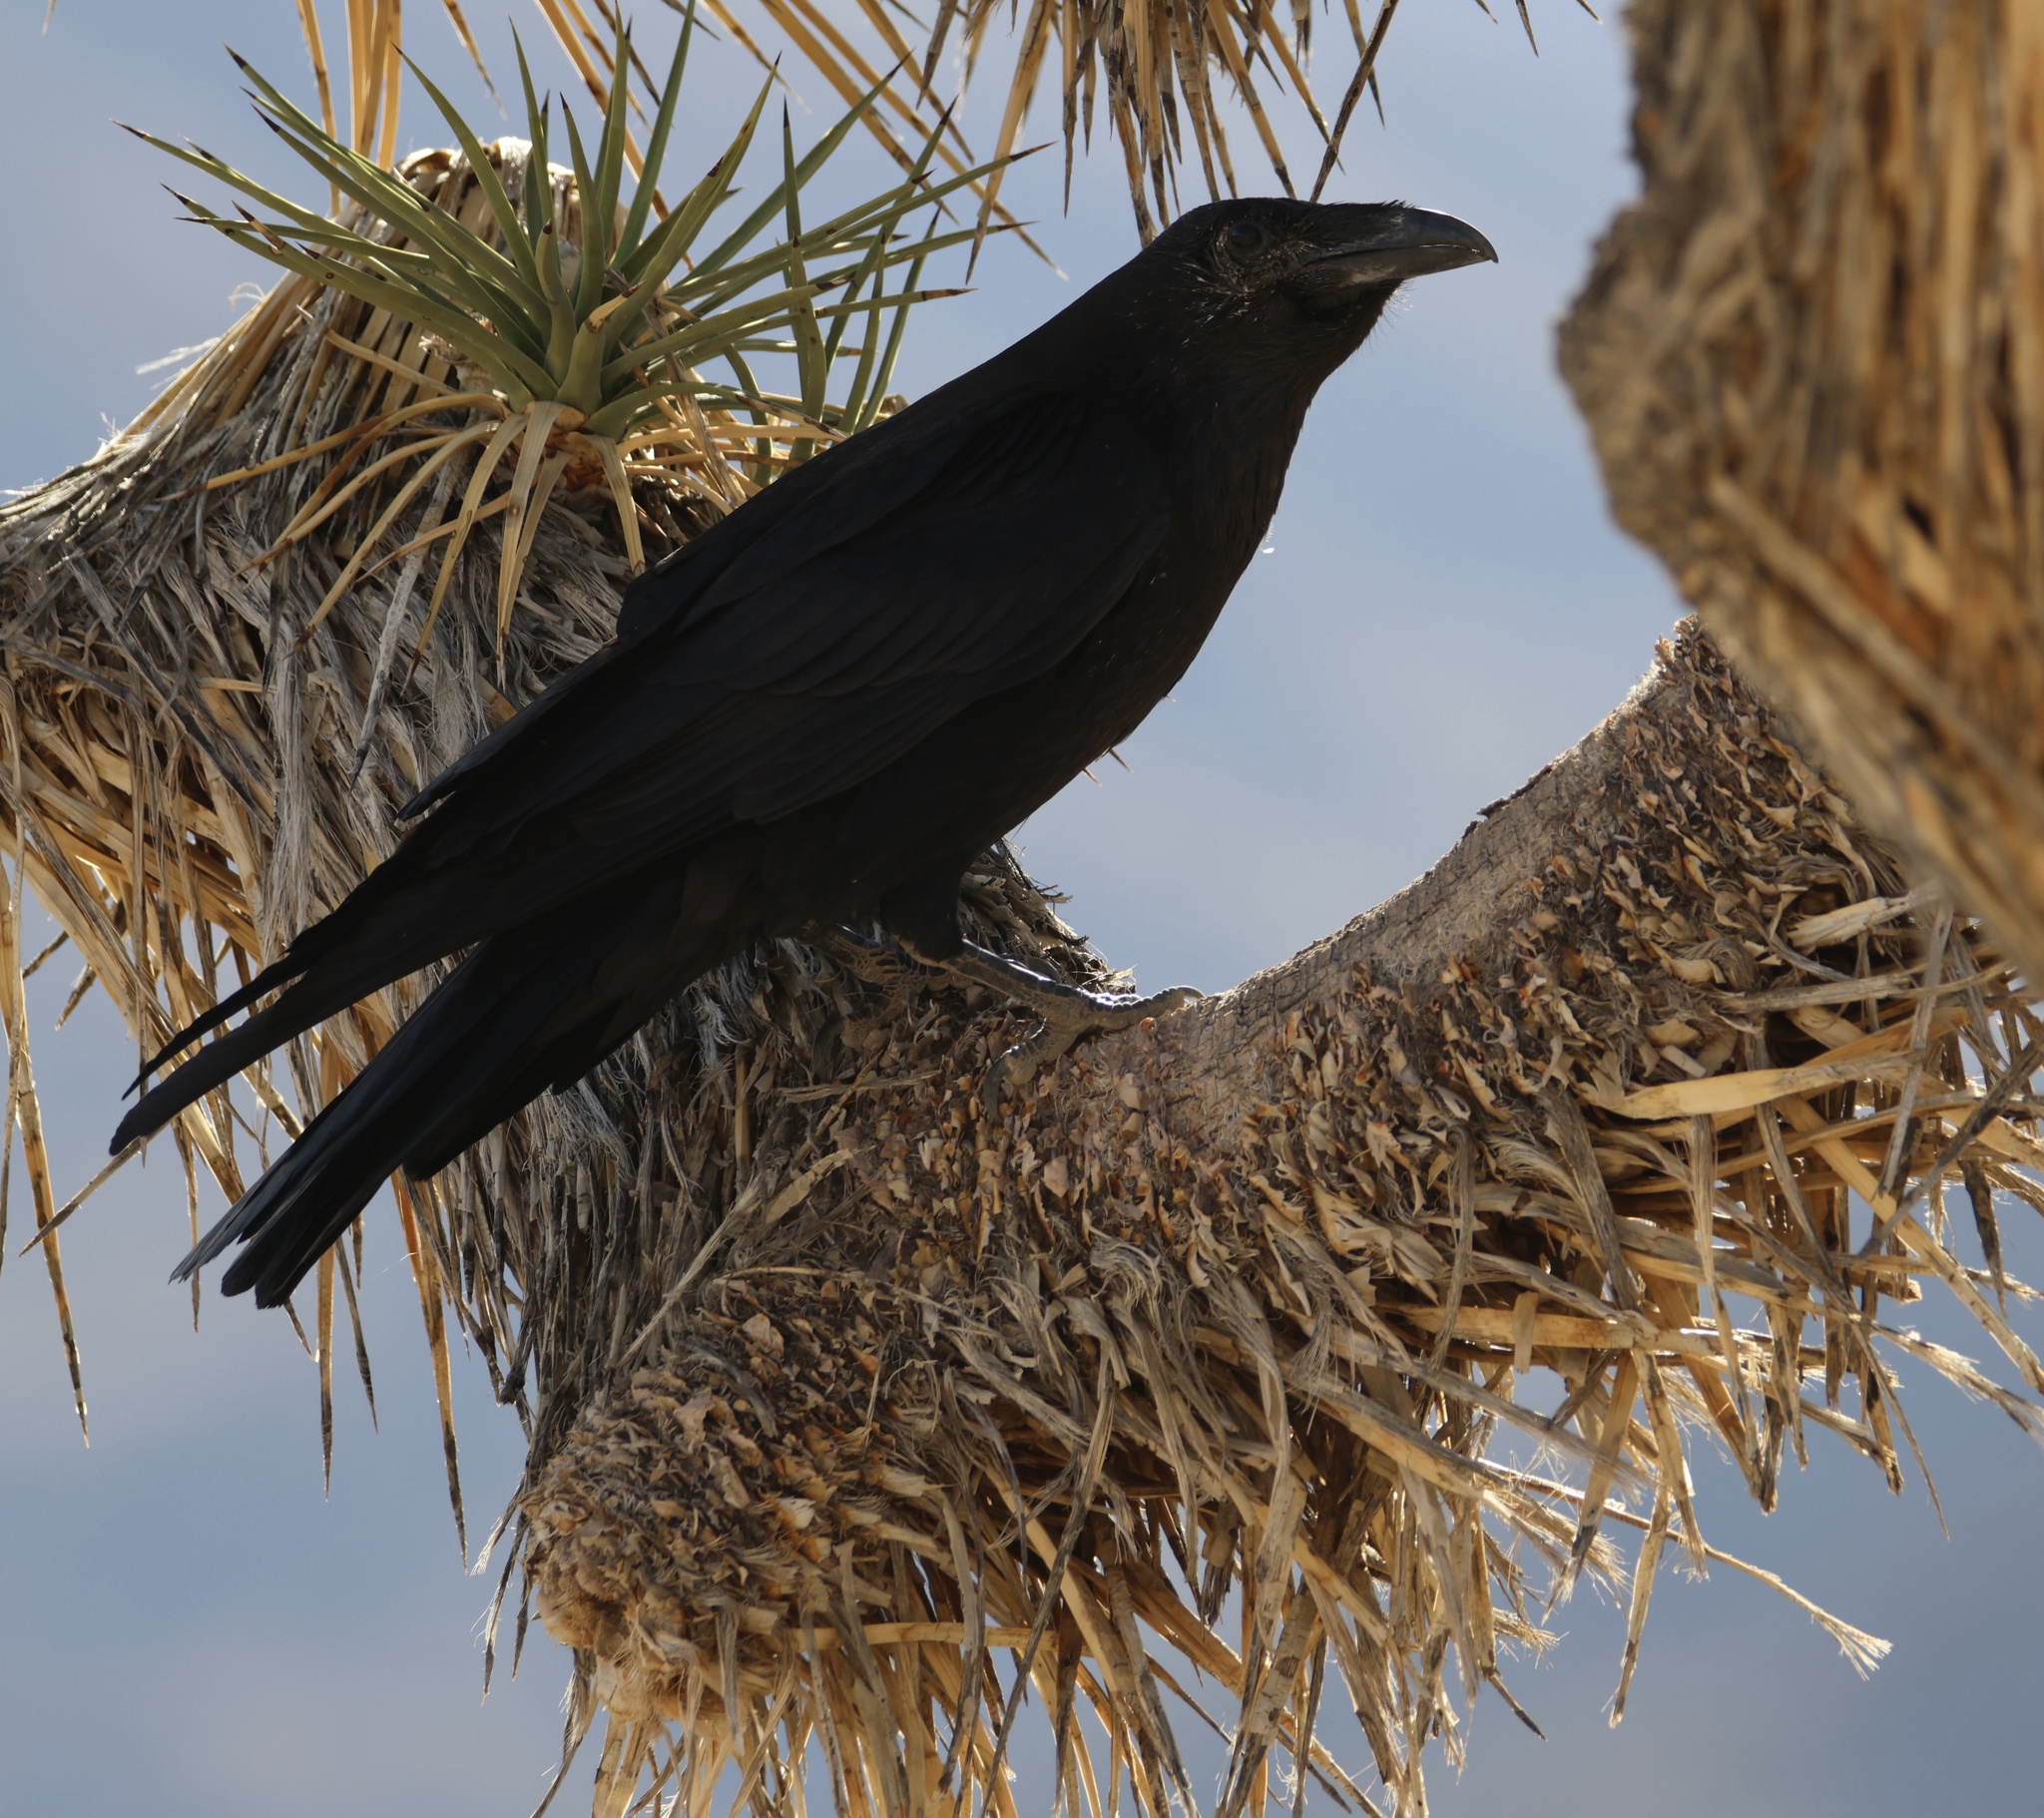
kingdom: Animalia
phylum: Chordata
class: Aves
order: Passeriformes
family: Corvidae
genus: Corvus
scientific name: Corvus corax
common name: Common raven
